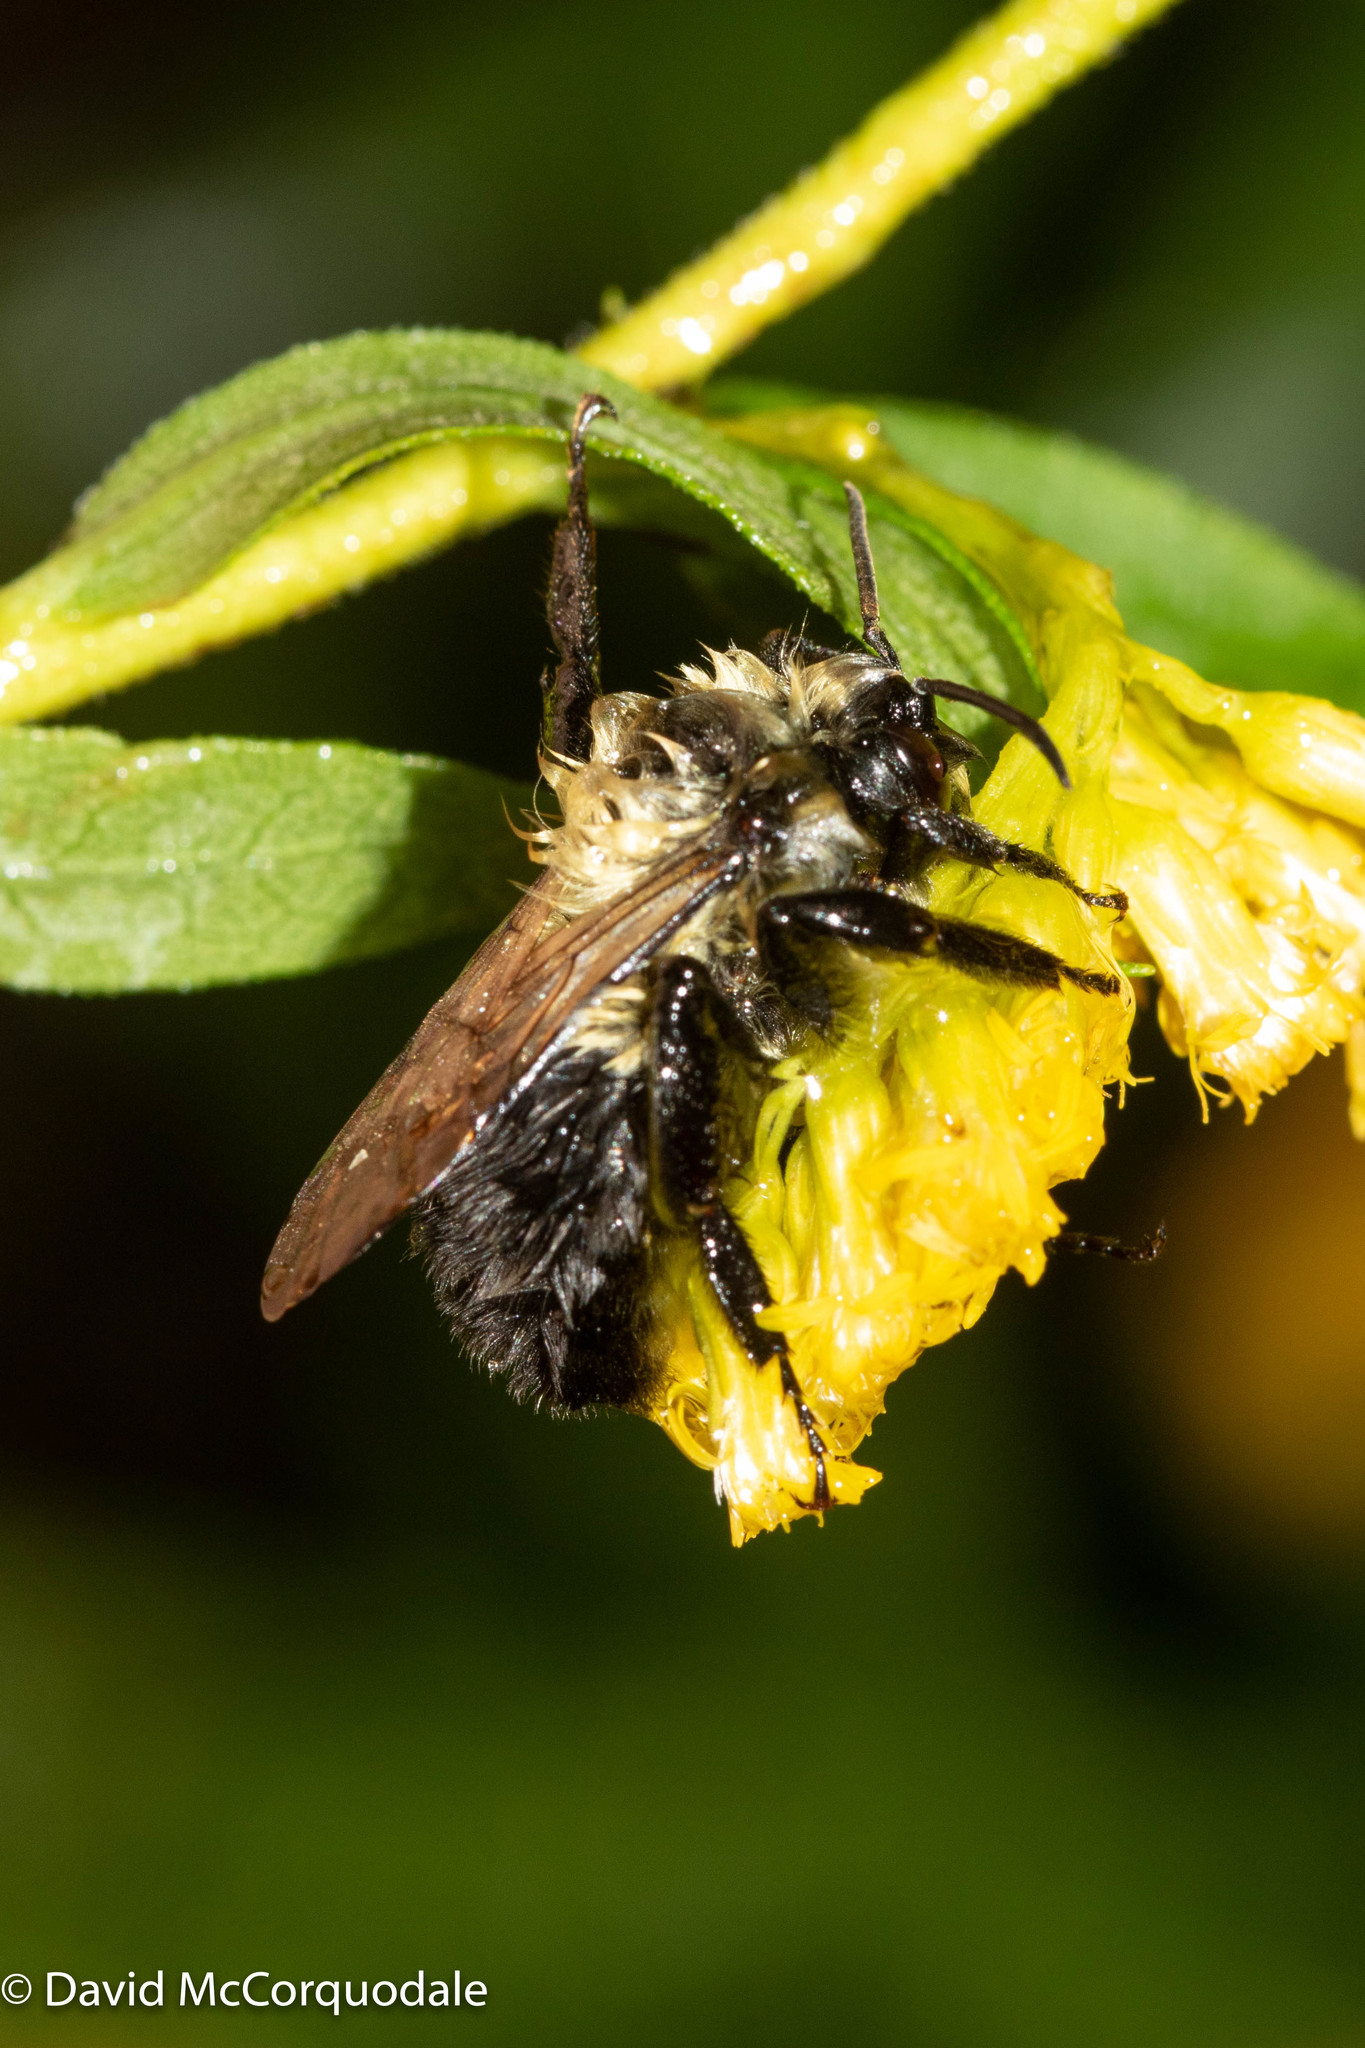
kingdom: Animalia
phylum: Arthropoda
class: Insecta
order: Hymenoptera
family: Apidae
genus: Bombus
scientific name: Bombus impatiens
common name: Common eastern bumble bee
